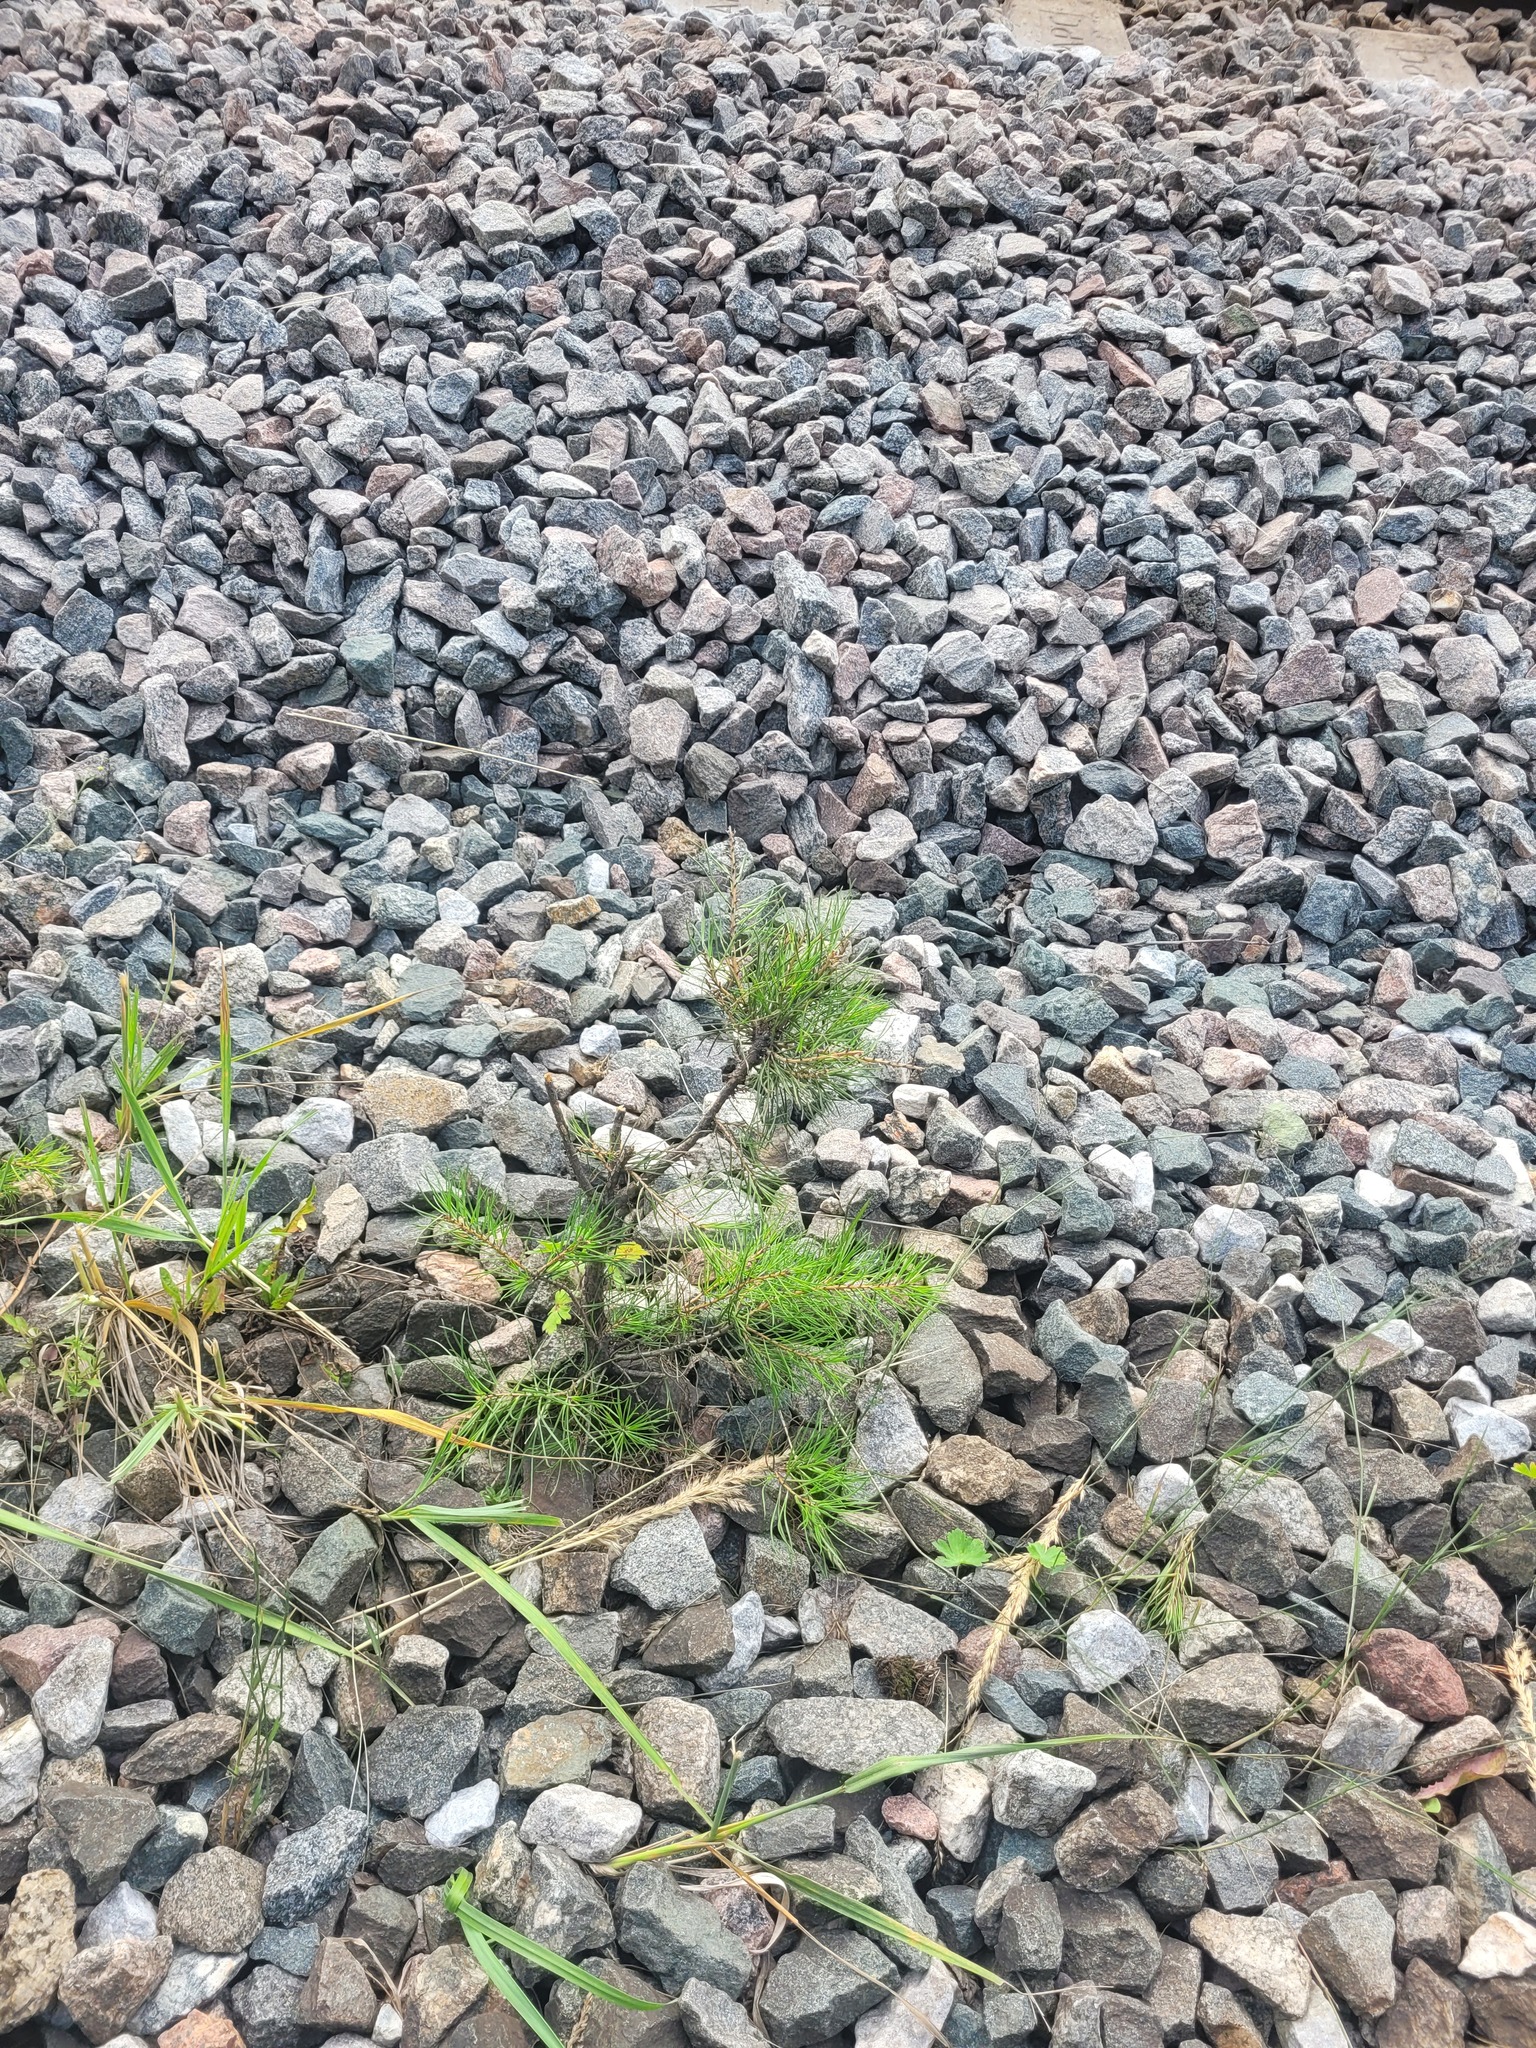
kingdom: Plantae
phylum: Tracheophyta
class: Pinopsida
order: Pinales
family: Pinaceae
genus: Pinus
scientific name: Pinus sylvestris
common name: Scots pine
